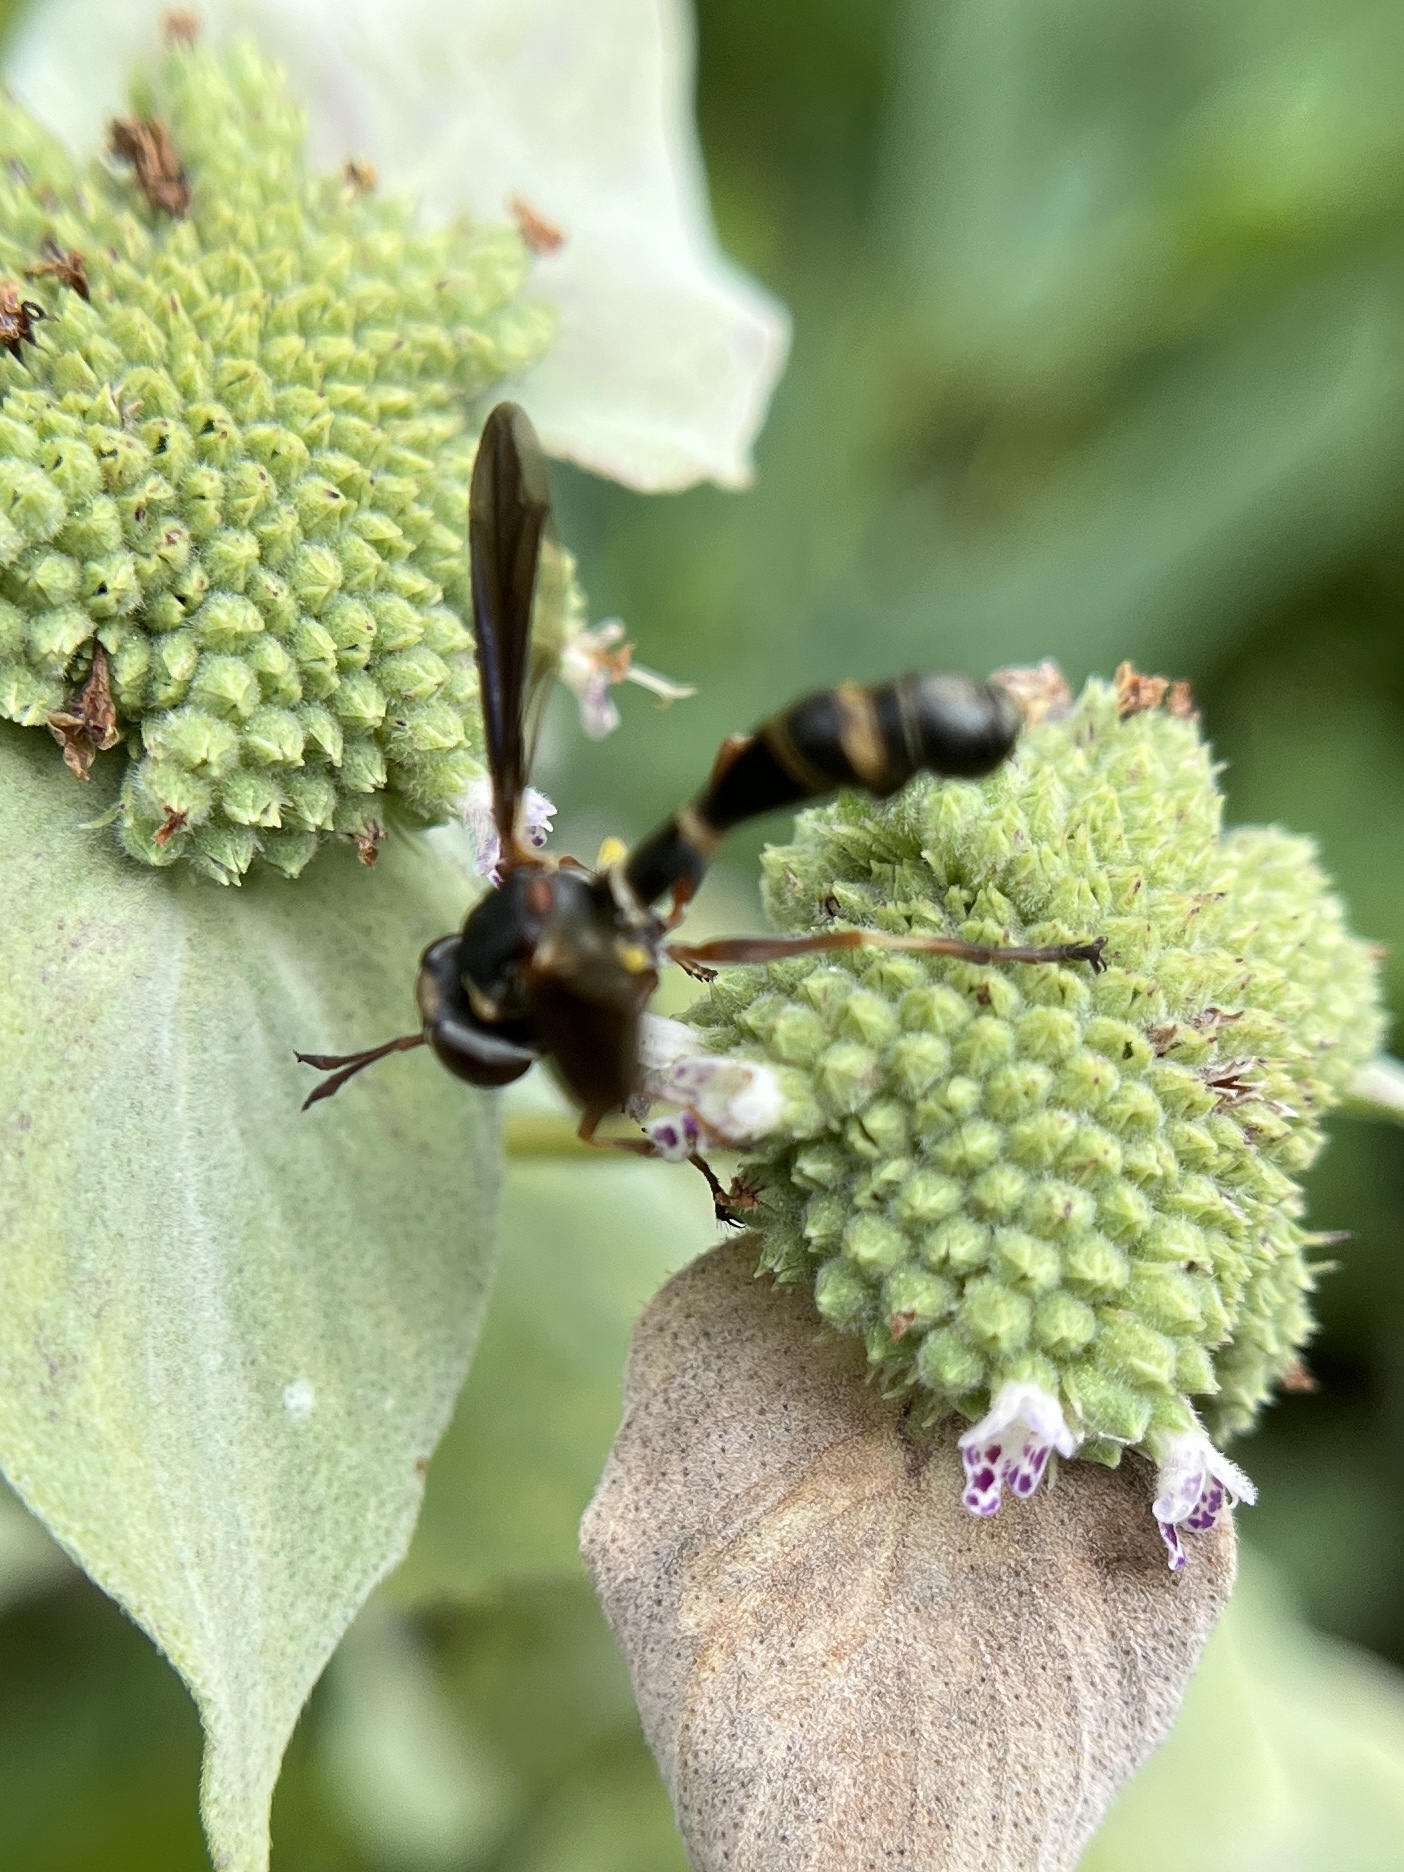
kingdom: Animalia
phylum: Arthropoda
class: Insecta
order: Diptera
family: Conopidae
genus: Physocephala
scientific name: Physocephala sagittaria
